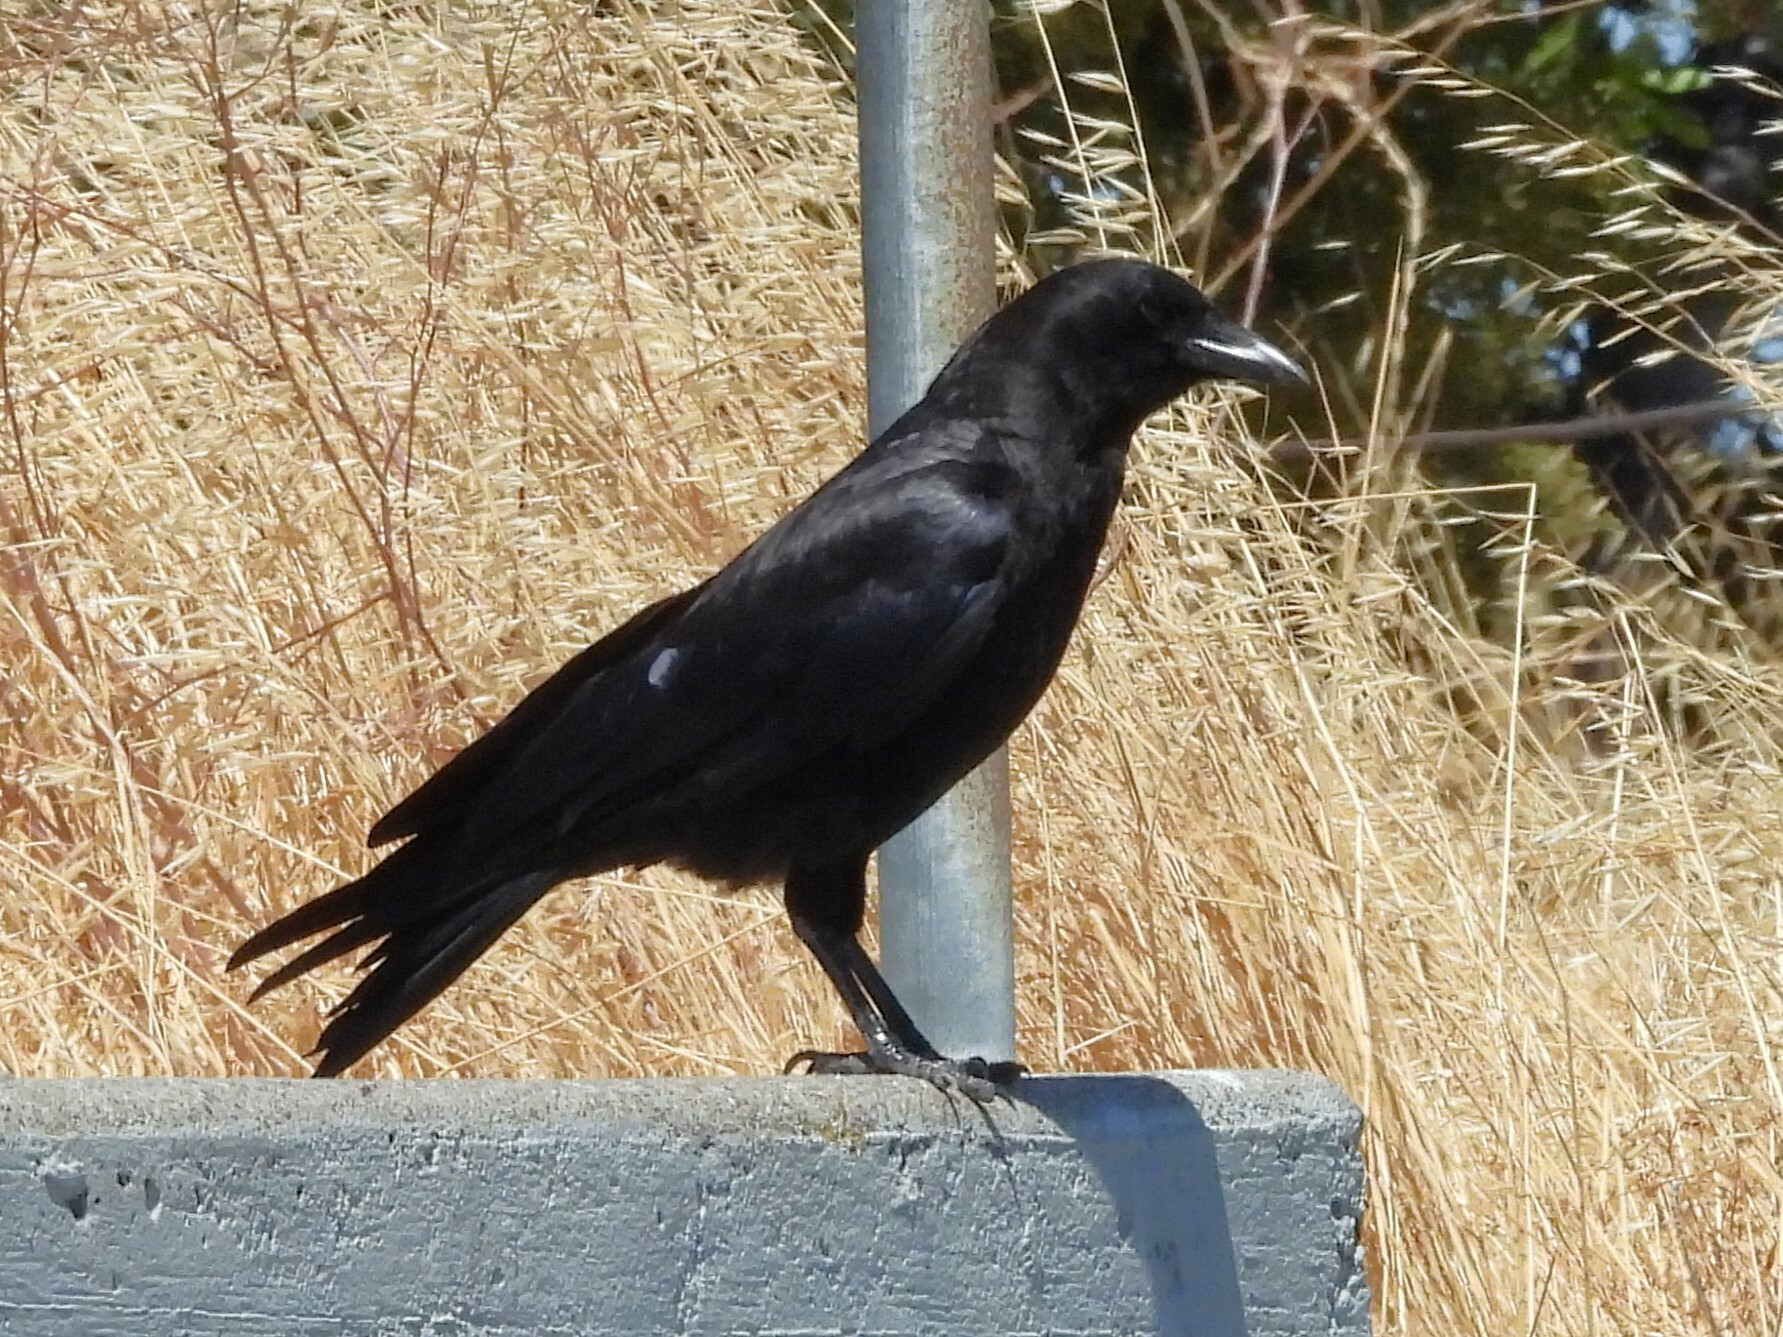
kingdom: Animalia
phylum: Chordata
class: Aves
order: Passeriformes
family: Corvidae
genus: Corvus
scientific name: Corvus brachyrhynchos
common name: American crow
